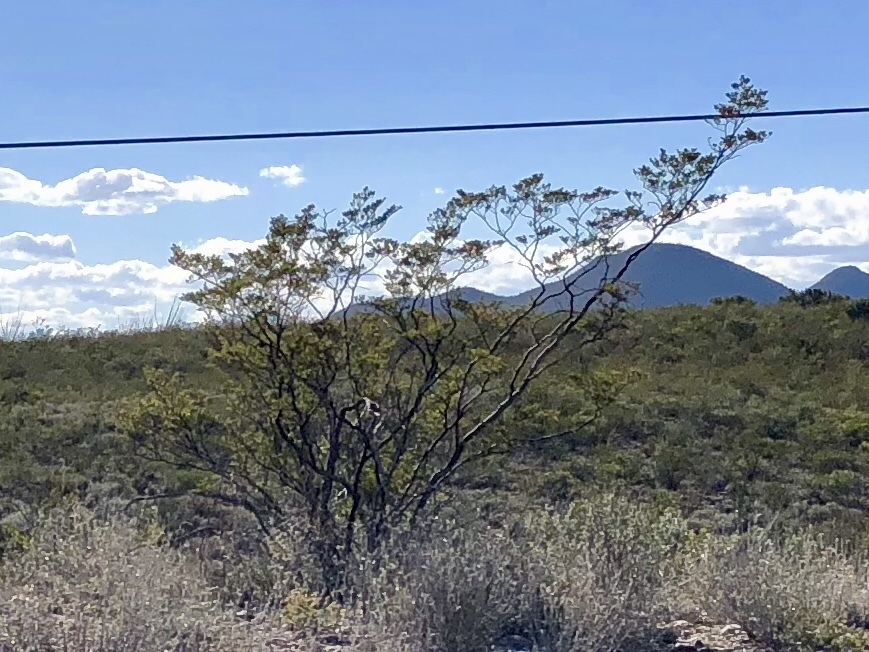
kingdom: Plantae
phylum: Tracheophyta
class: Magnoliopsida
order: Zygophyllales
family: Zygophyllaceae
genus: Larrea
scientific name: Larrea tridentata
